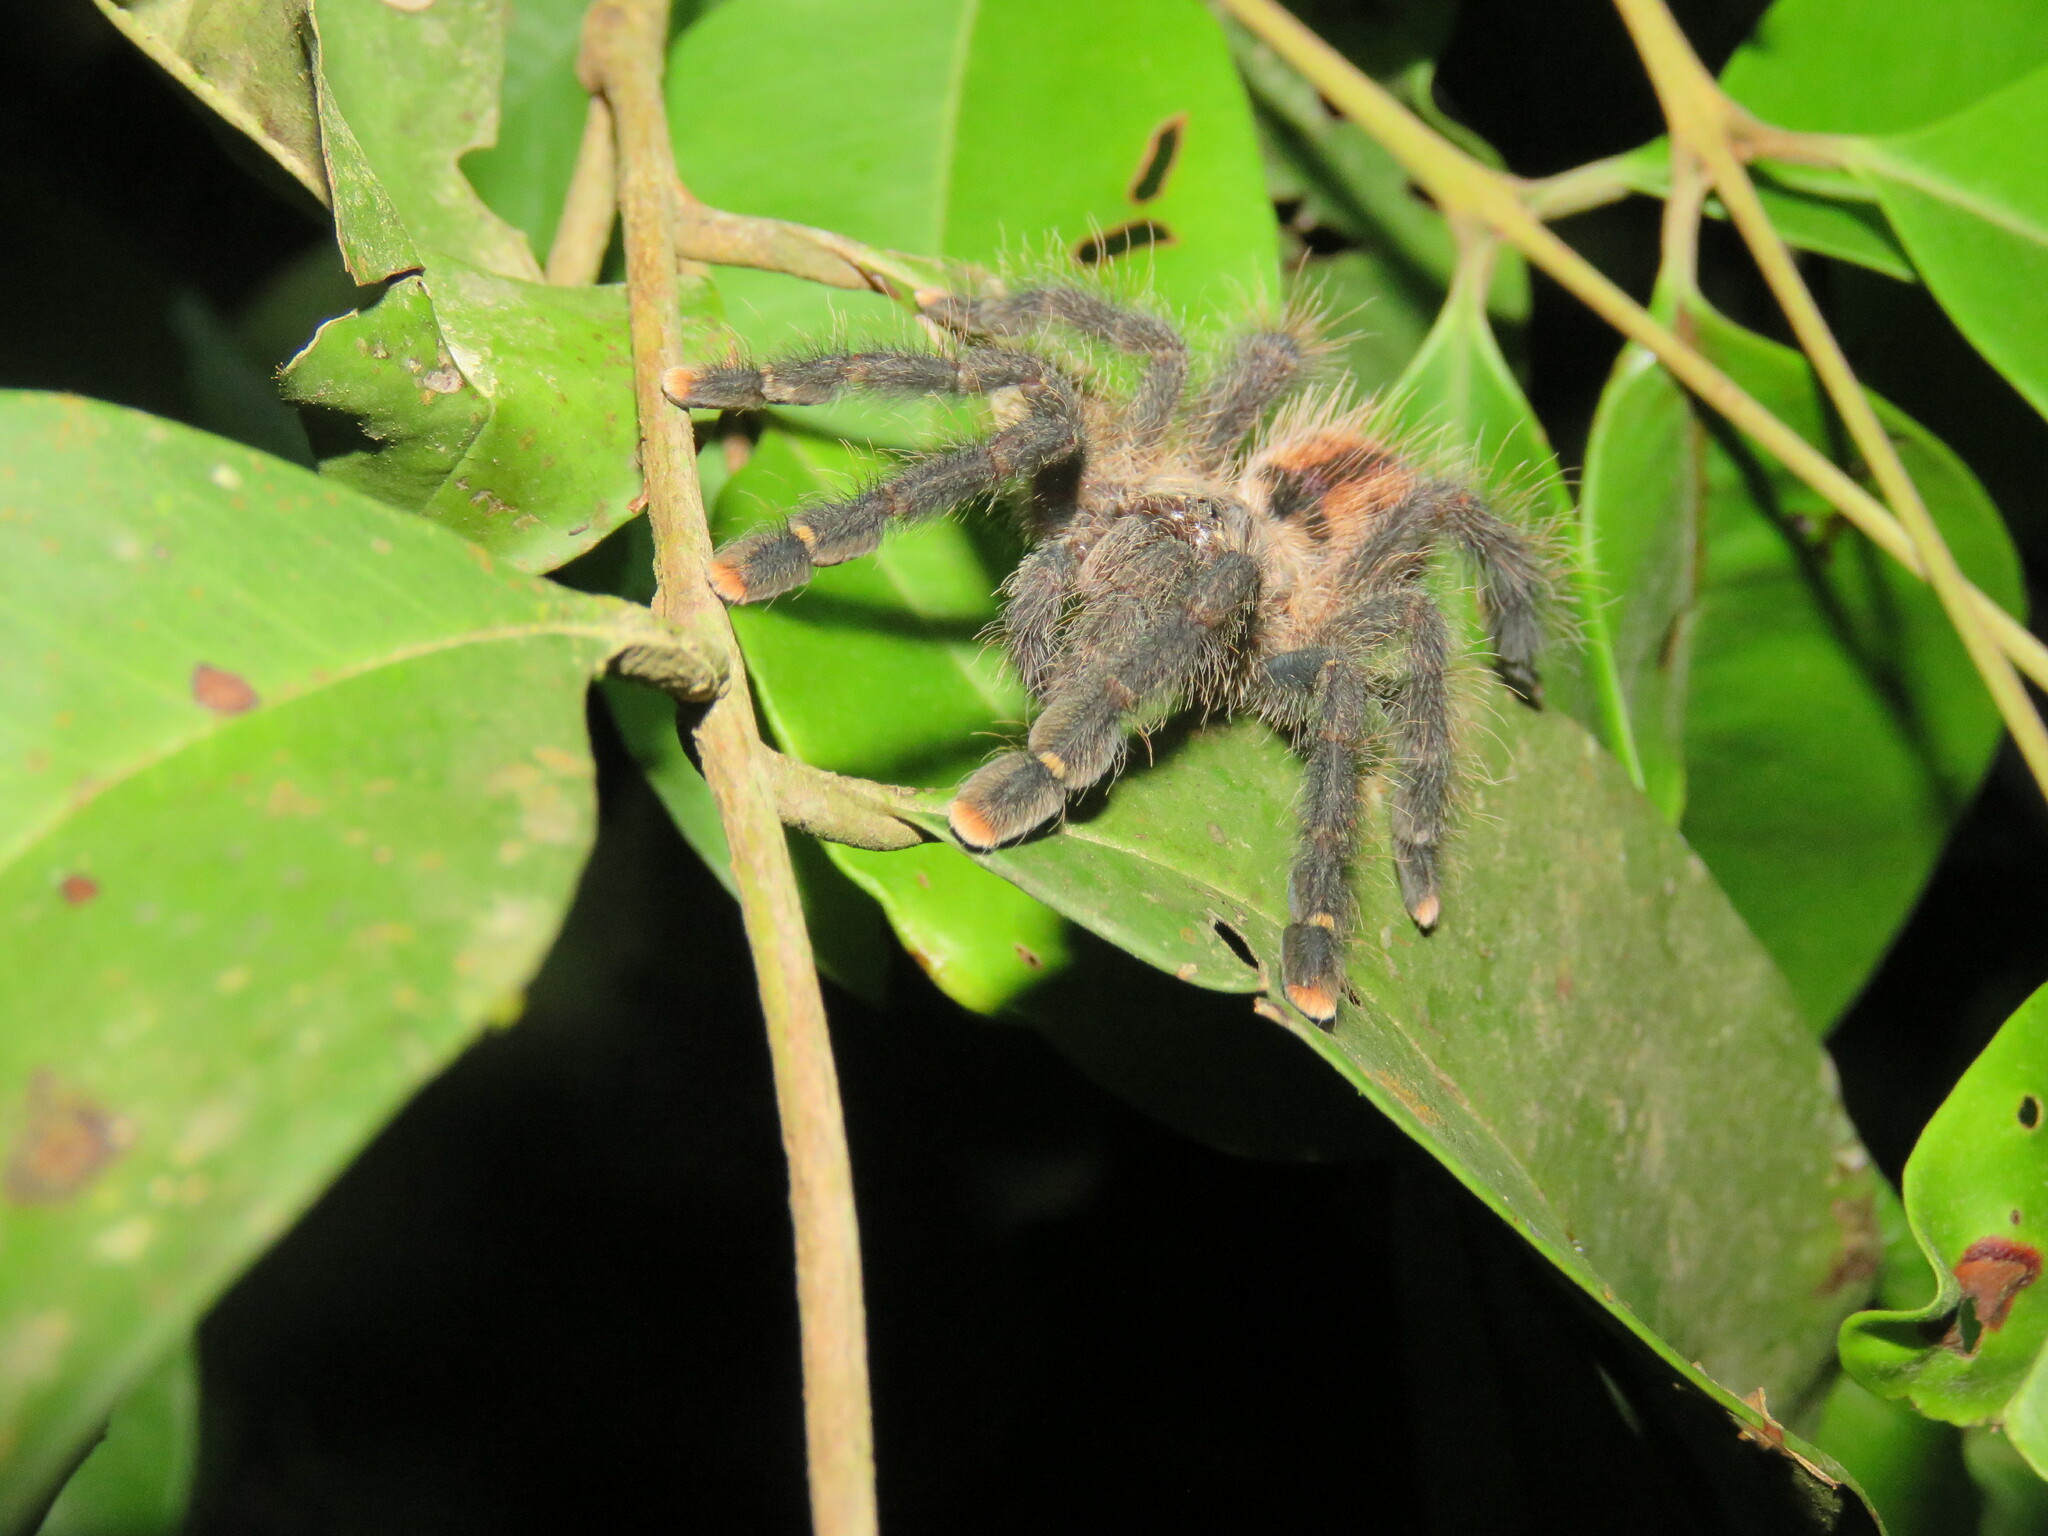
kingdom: Animalia
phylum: Arthropoda
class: Arachnida
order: Araneae
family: Theraphosidae
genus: Avicularia
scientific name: Avicularia juruensis
